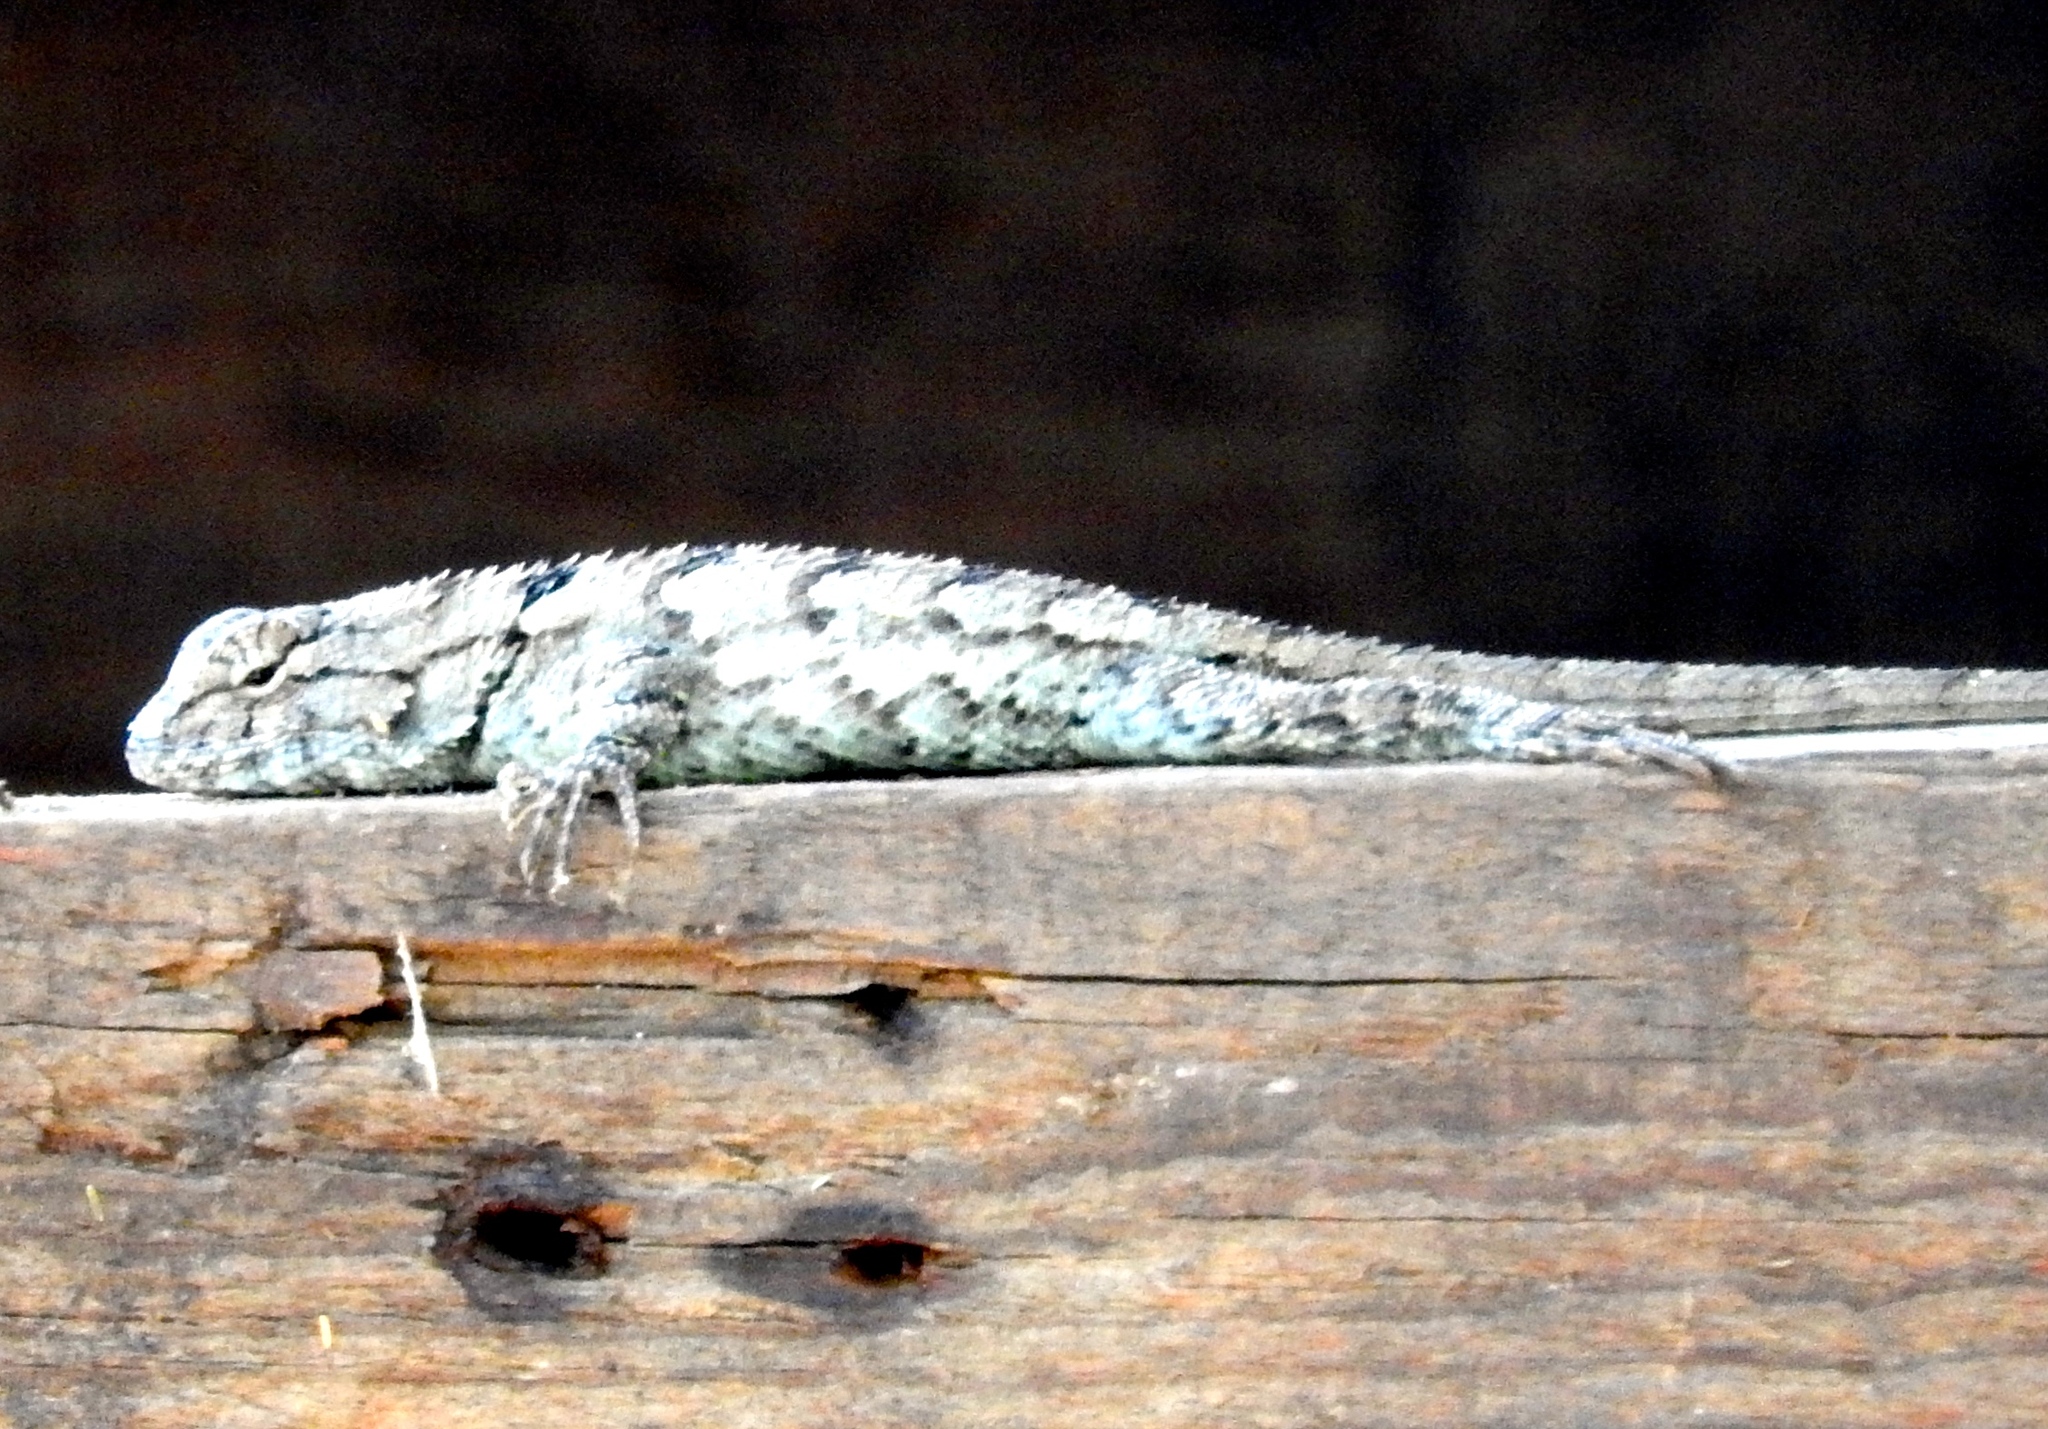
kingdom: Animalia
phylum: Chordata
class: Squamata
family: Phrynosomatidae
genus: Sceloporus
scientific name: Sceloporus clarkii
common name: Clark's spiny lizard
